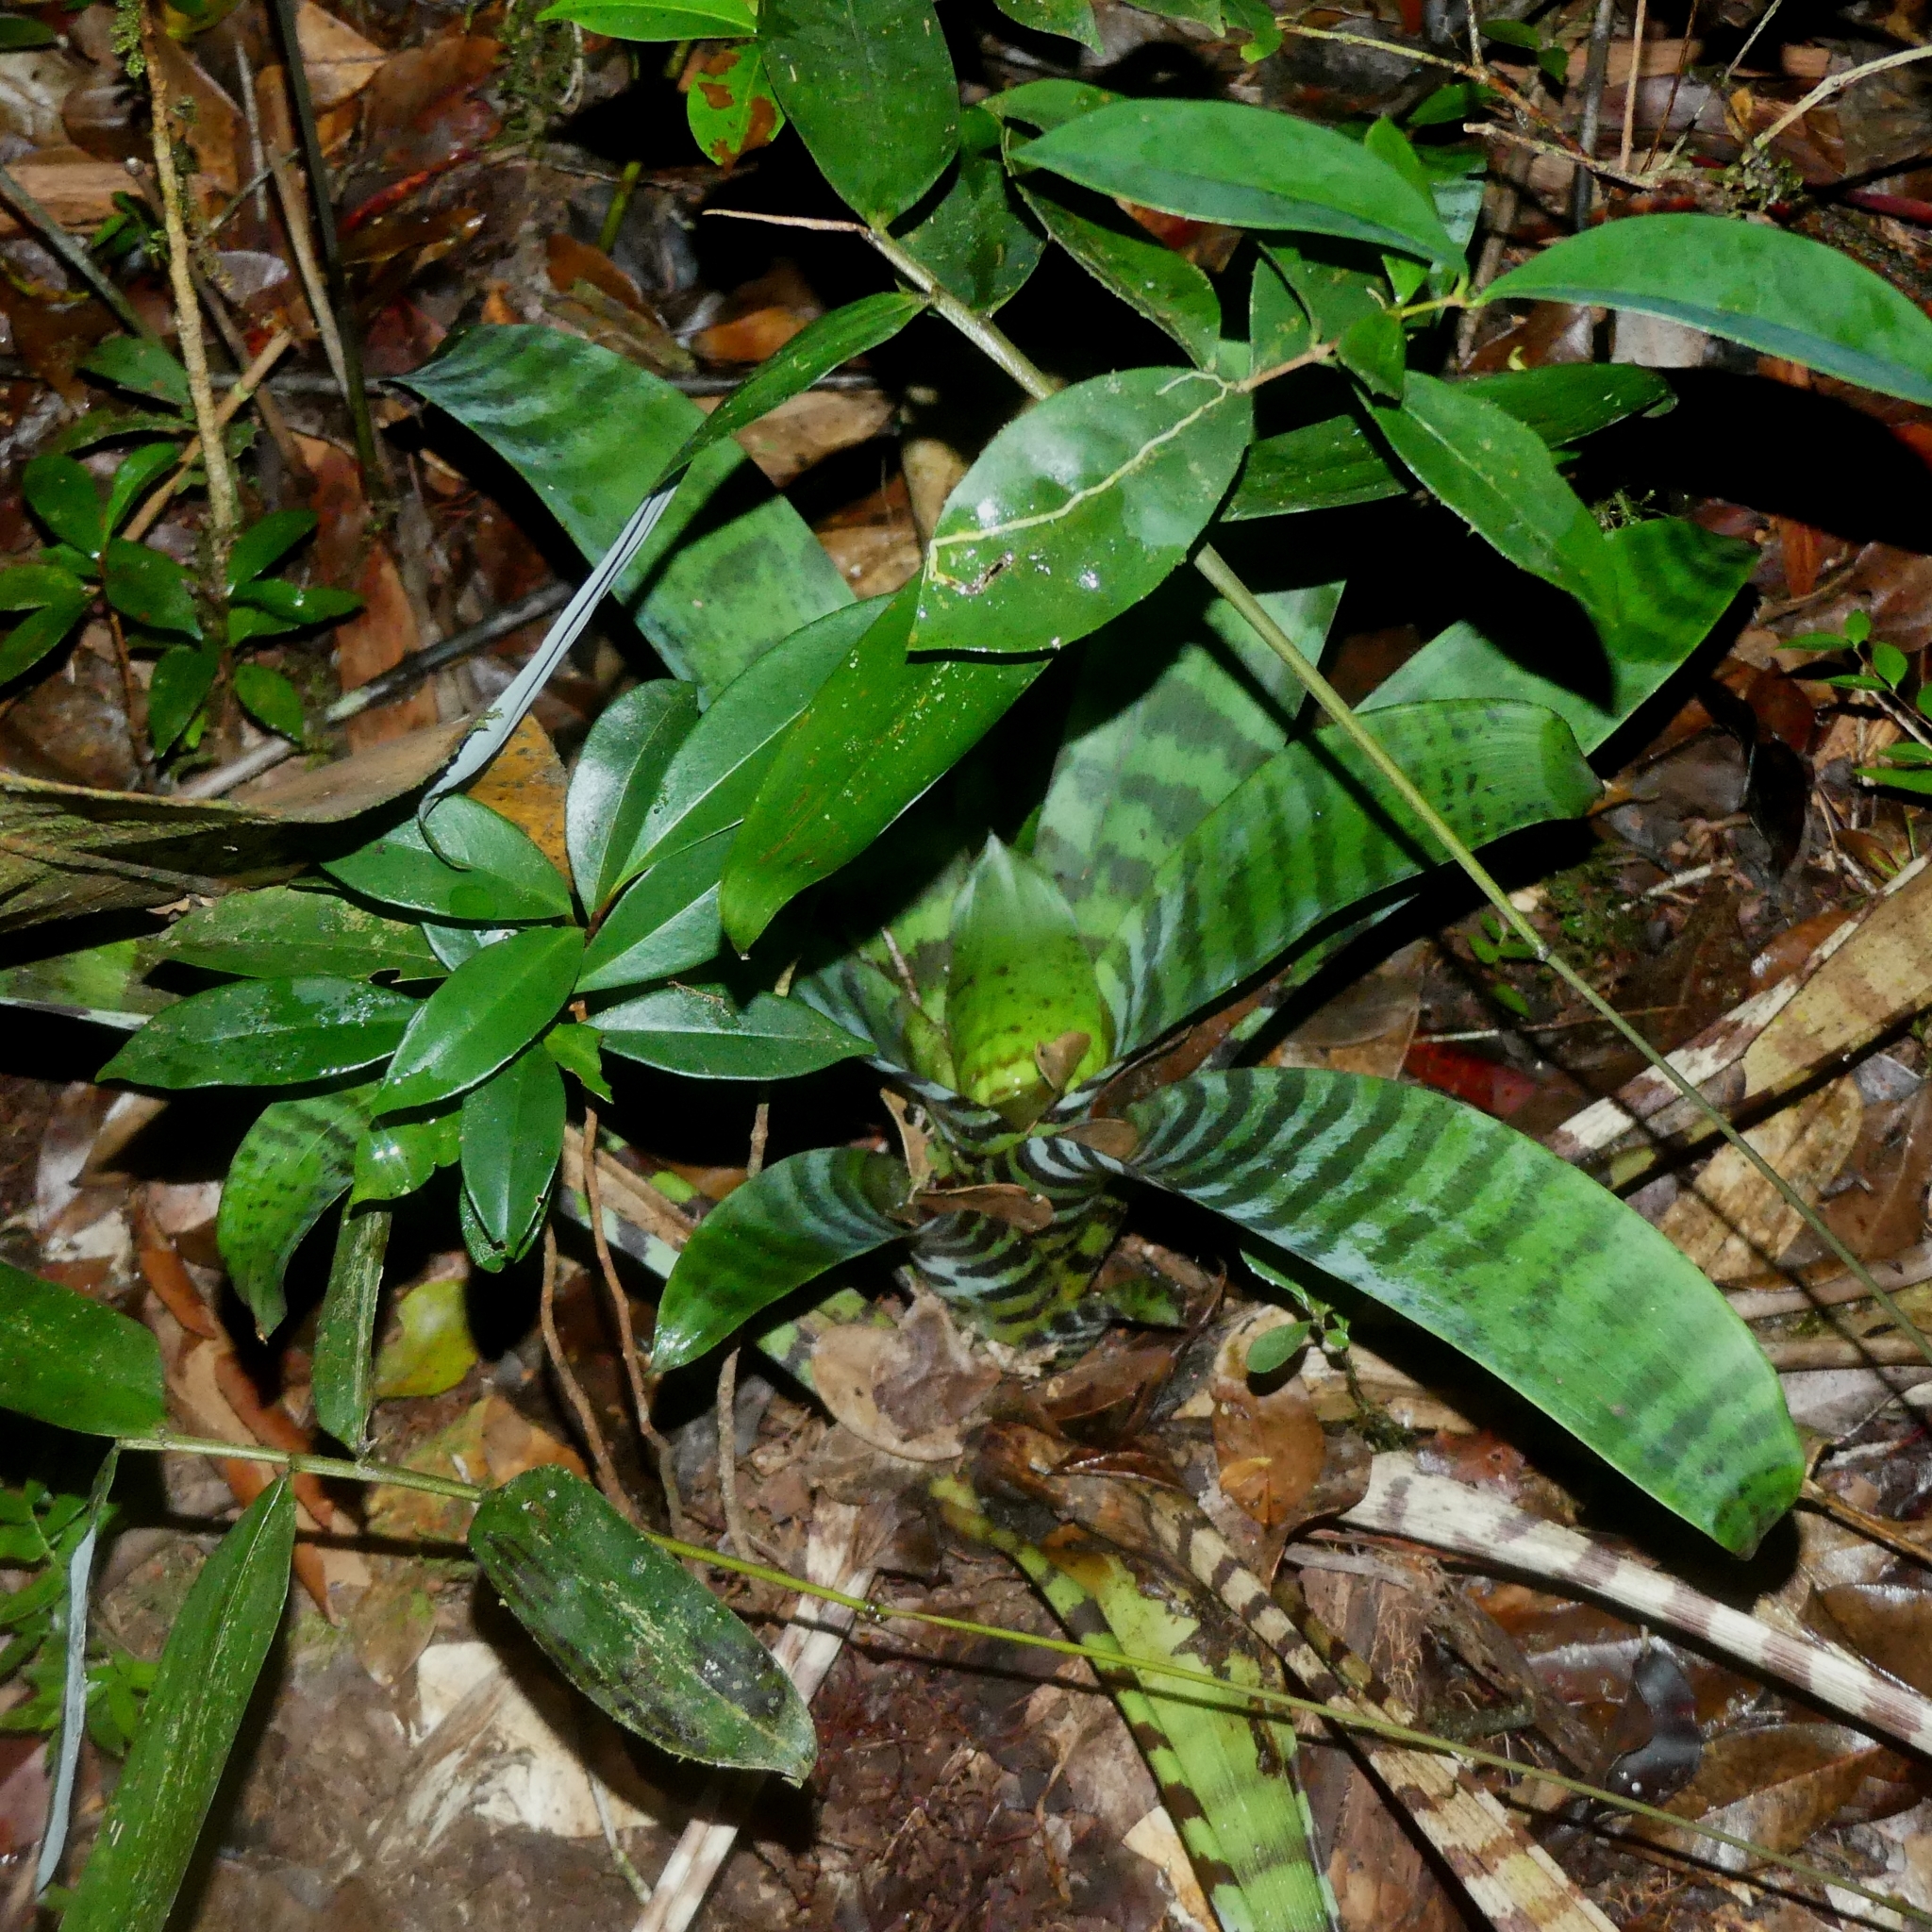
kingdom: Plantae
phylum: Tracheophyta
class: Liliopsida
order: Poales
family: Bromeliaceae
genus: Lutheria
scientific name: Lutheria splendens
